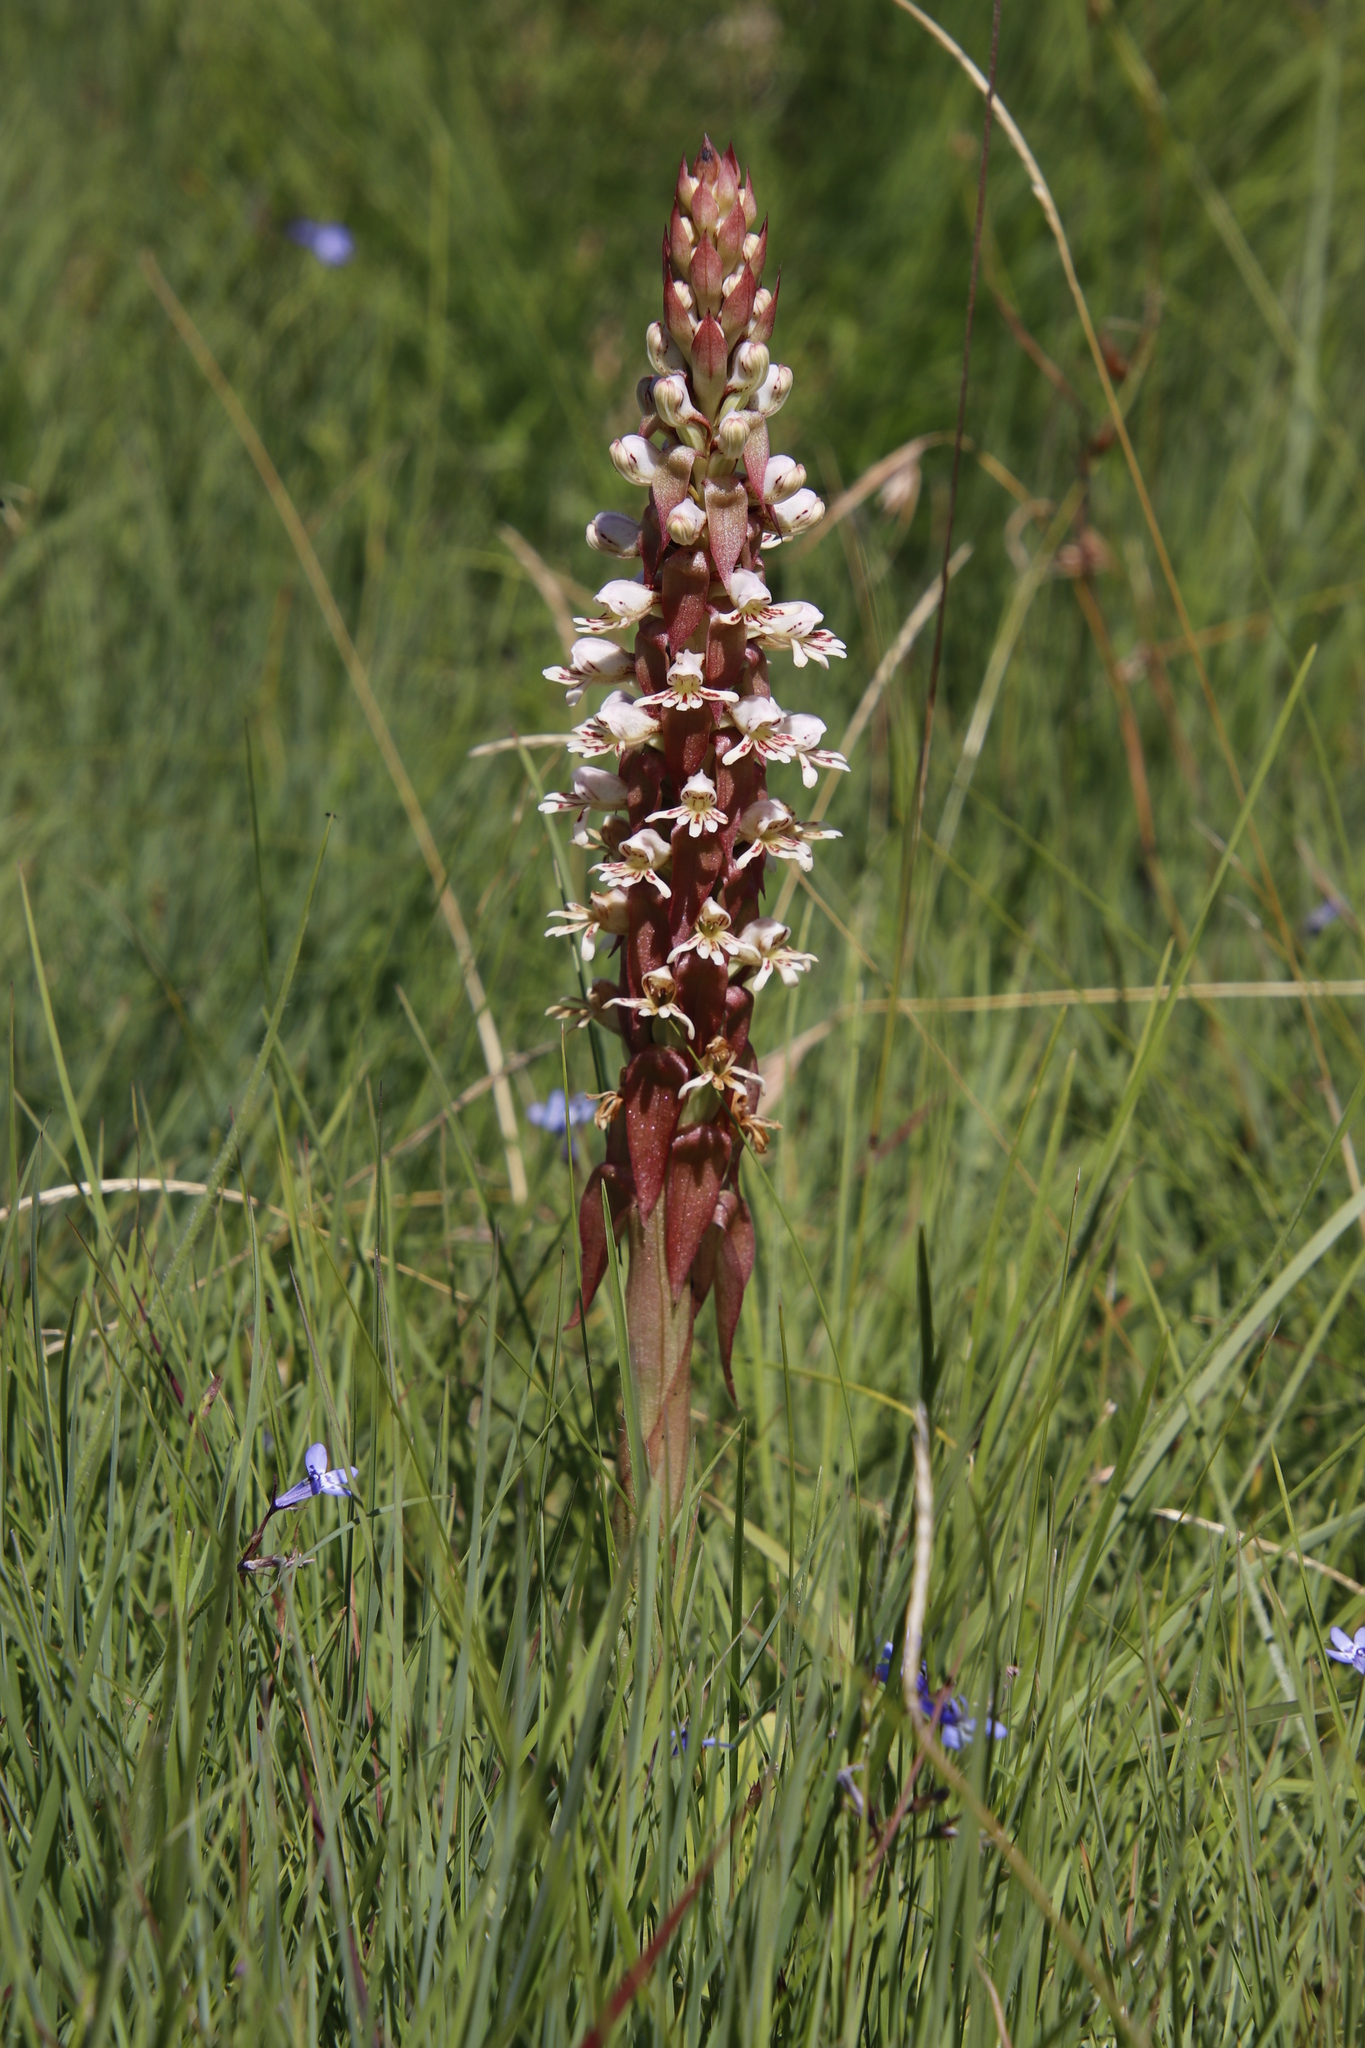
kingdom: Plantae
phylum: Tracheophyta
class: Liliopsida
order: Asparagales
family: Orchidaceae
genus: Satyrium
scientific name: Satyrium cristatum
